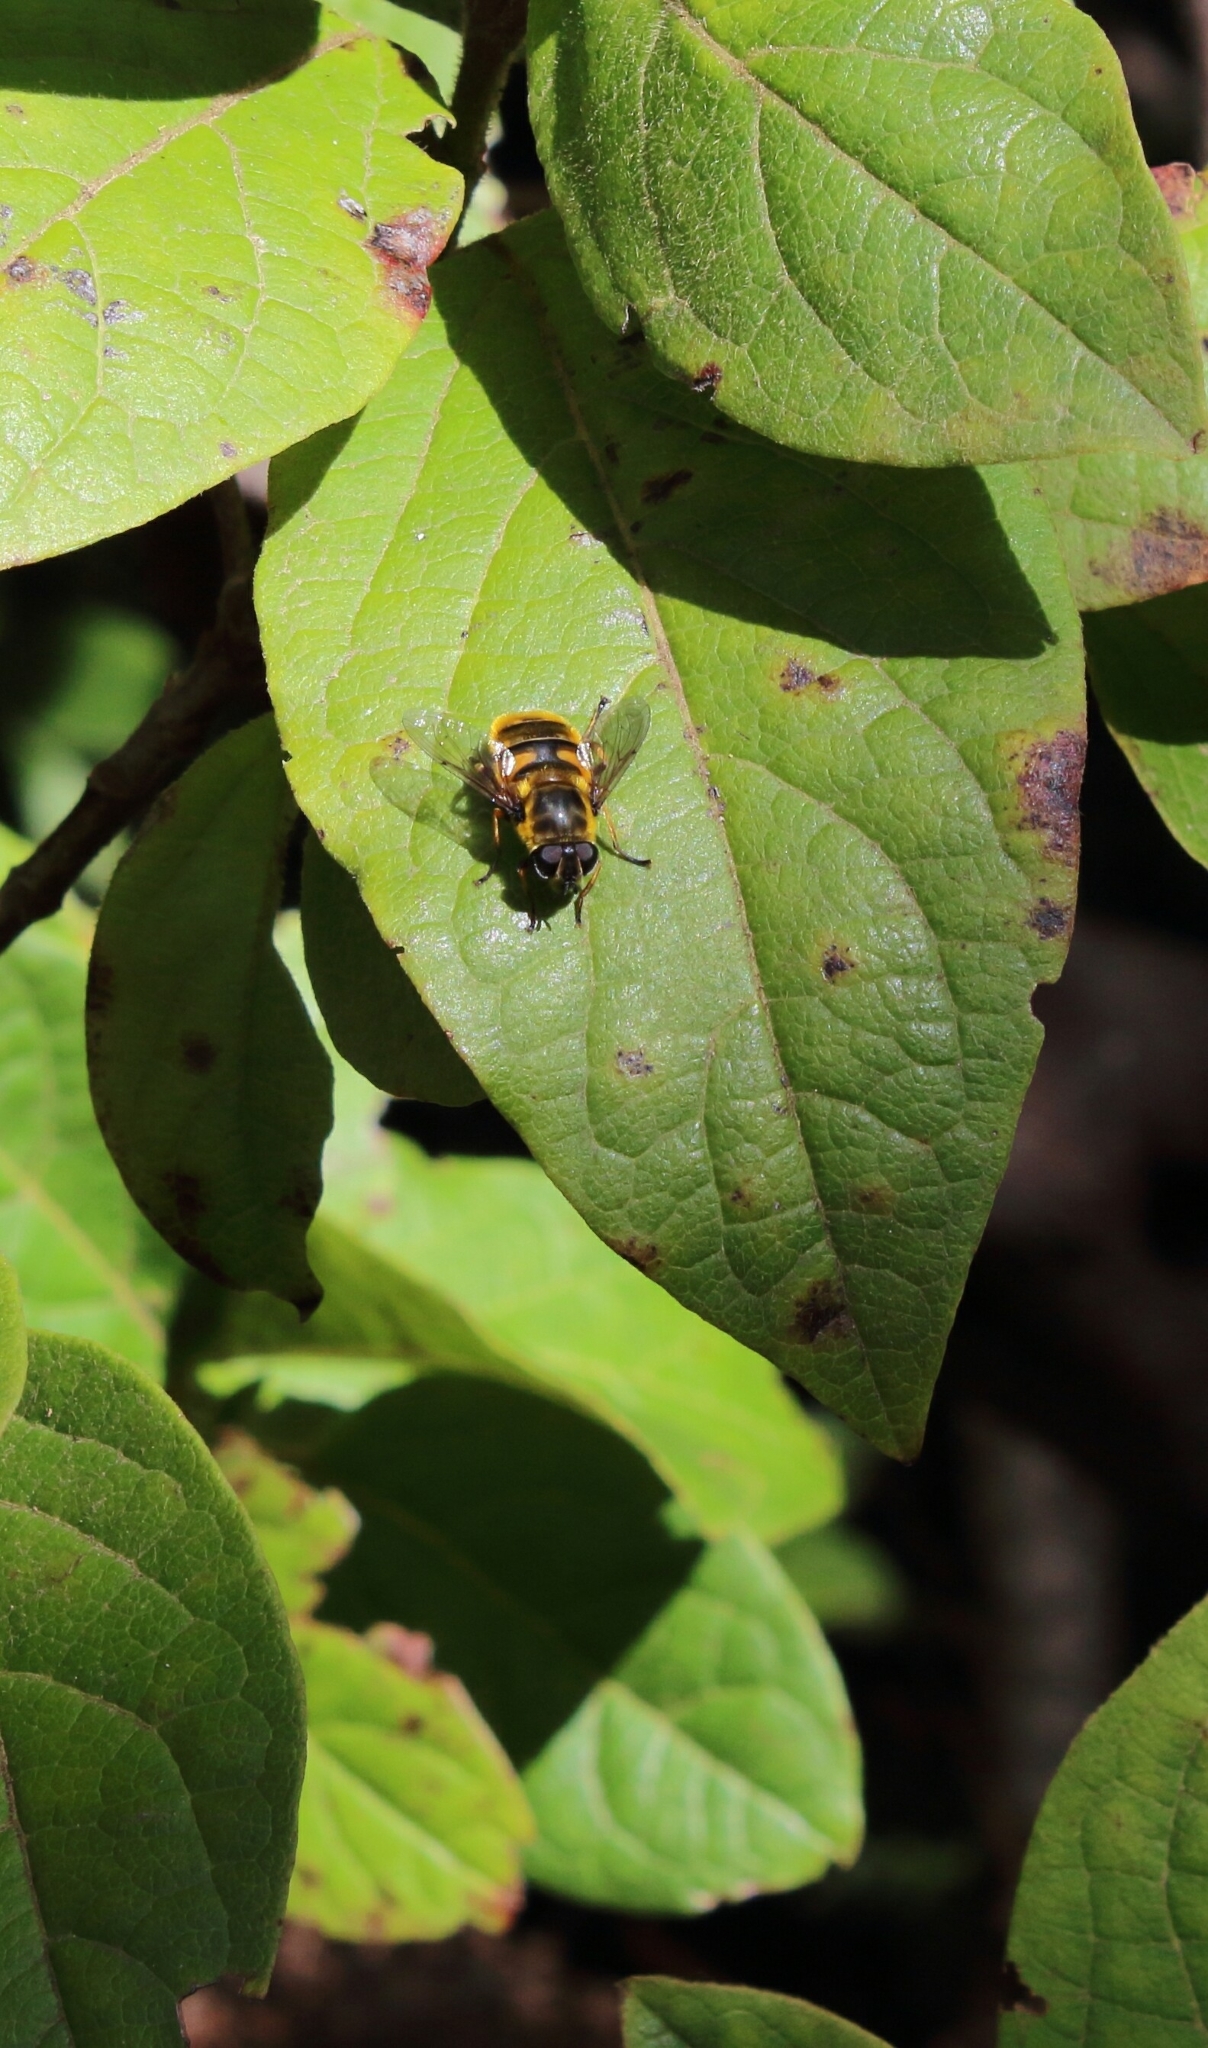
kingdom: Animalia
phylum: Arthropoda
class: Insecta
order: Diptera
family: Syrphidae
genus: Myathropa
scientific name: Myathropa florea
